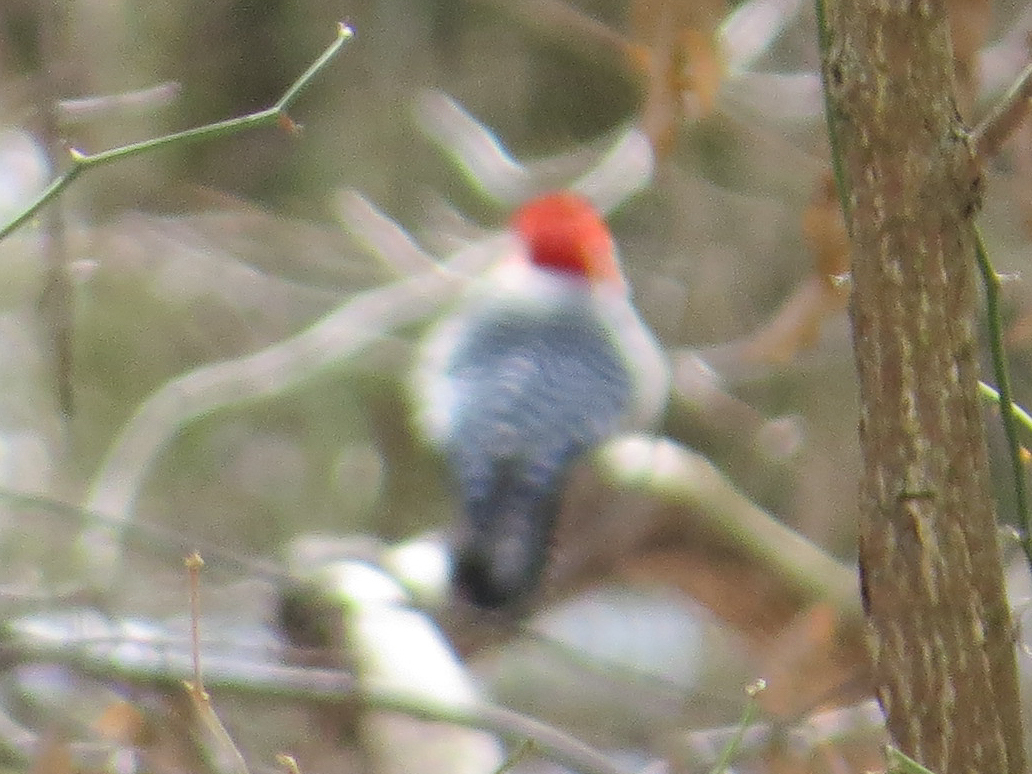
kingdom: Animalia
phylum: Chordata
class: Aves
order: Piciformes
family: Picidae
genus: Melanerpes
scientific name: Melanerpes carolinus
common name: Red-bellied woodpecker
